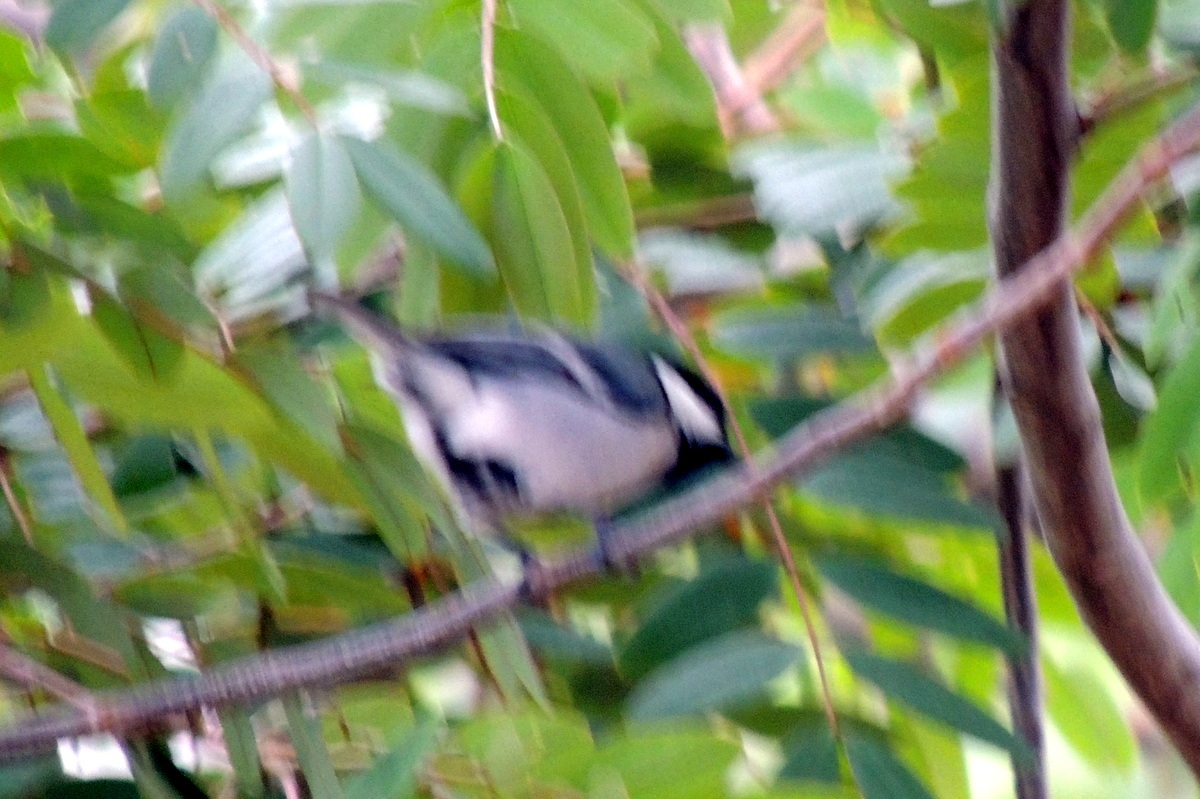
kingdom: Animalia
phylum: Chordata
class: Aves
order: Passeriformes
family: Paridae
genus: Parus
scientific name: Parus cinereus
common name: Cinereous tit
